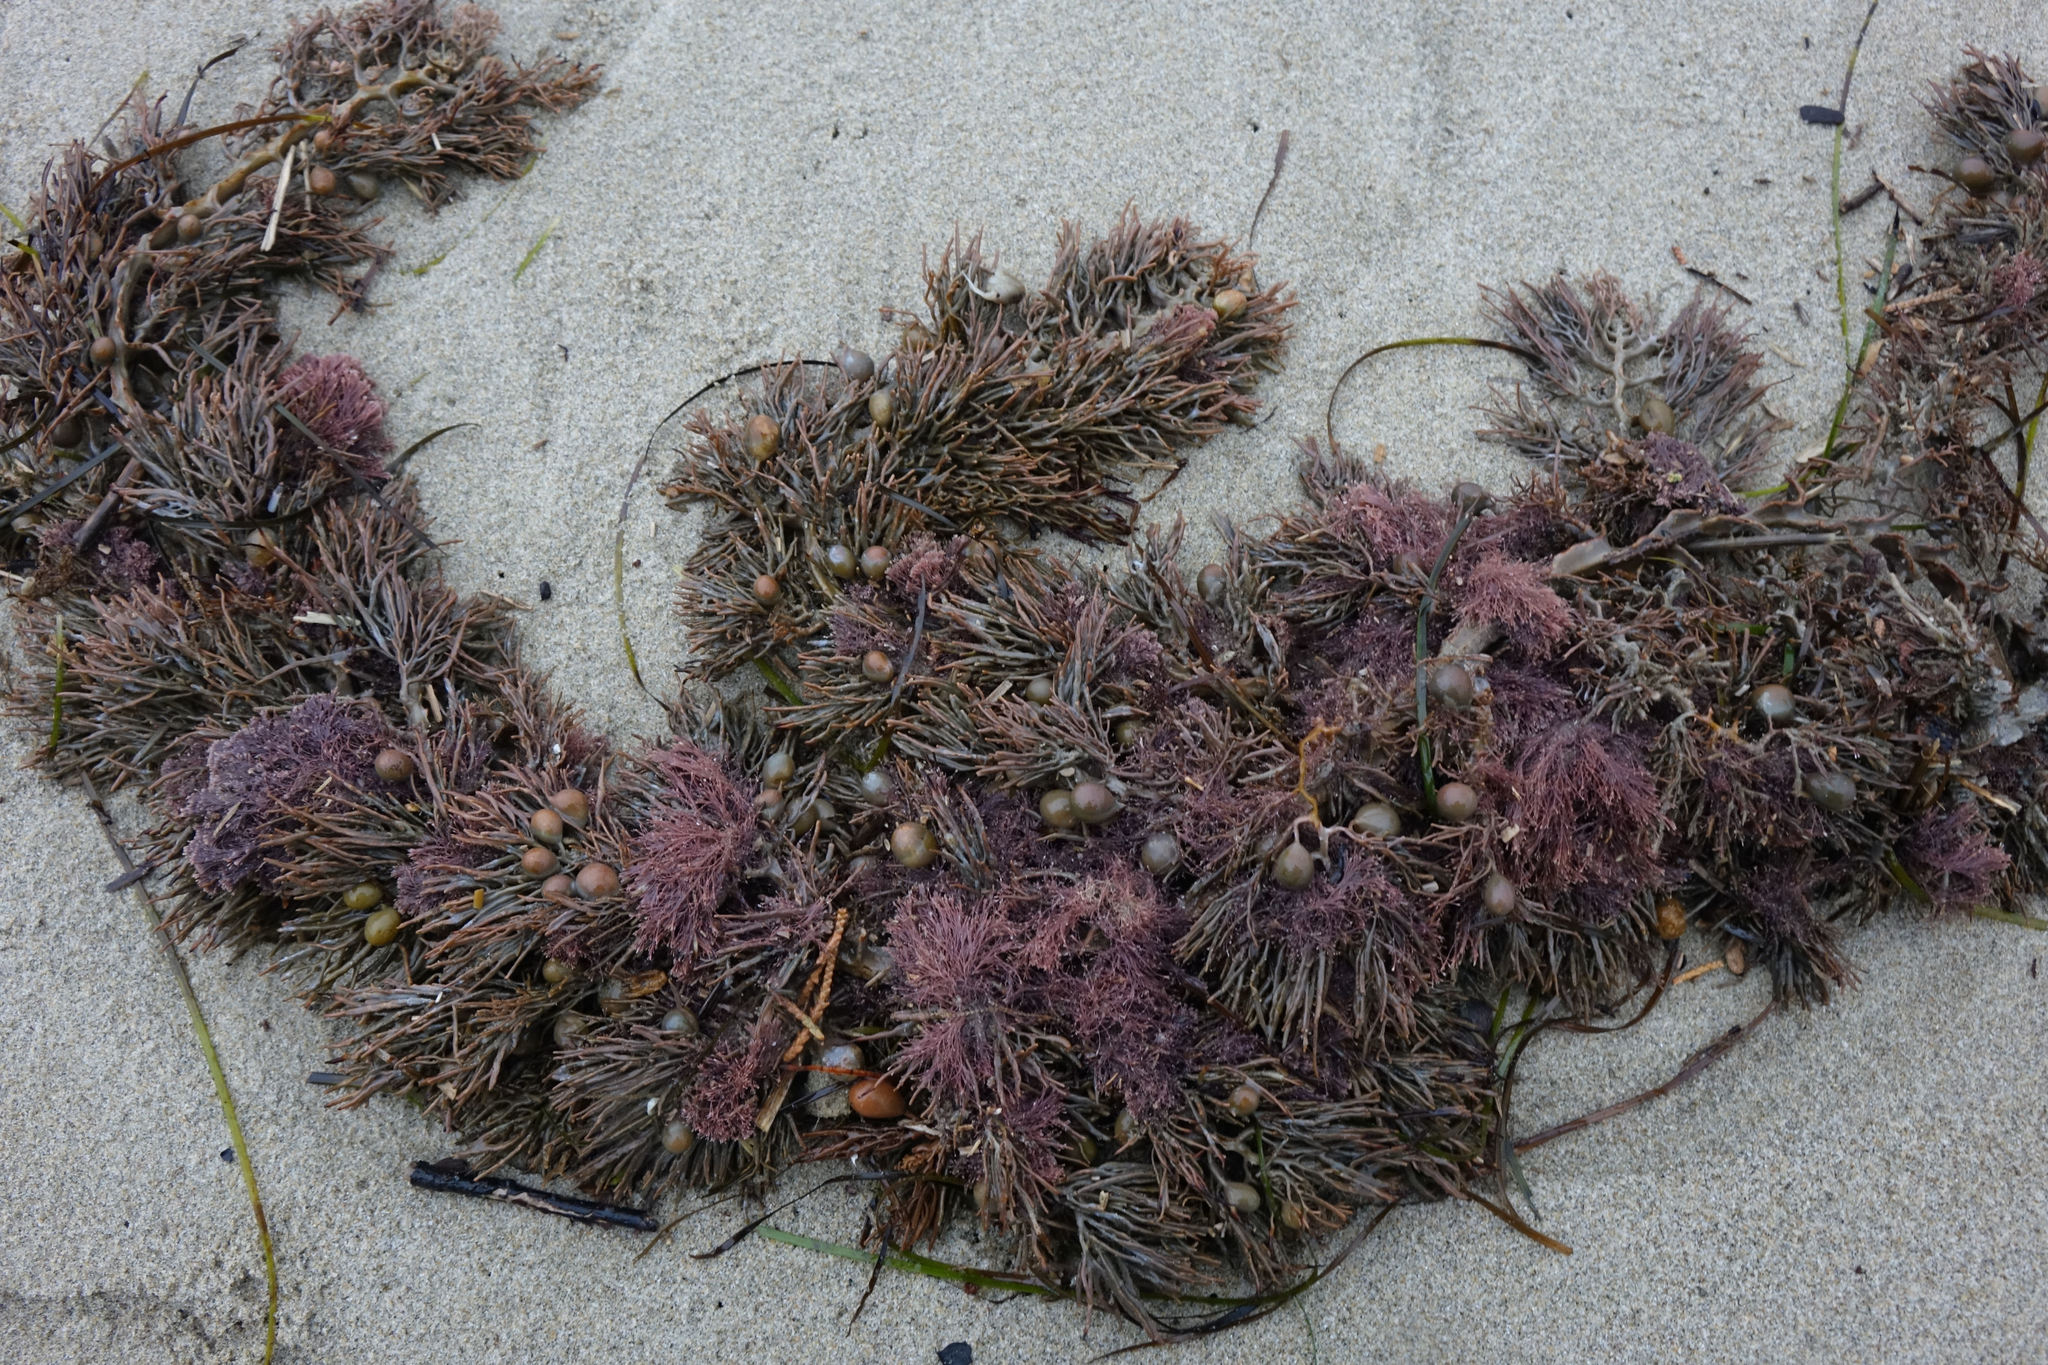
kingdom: Chromista
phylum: Ochrophyta
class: Phaeophyceae
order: Fucales
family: Sargassaceae
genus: Cystophora
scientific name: Cystophora retroflexa
